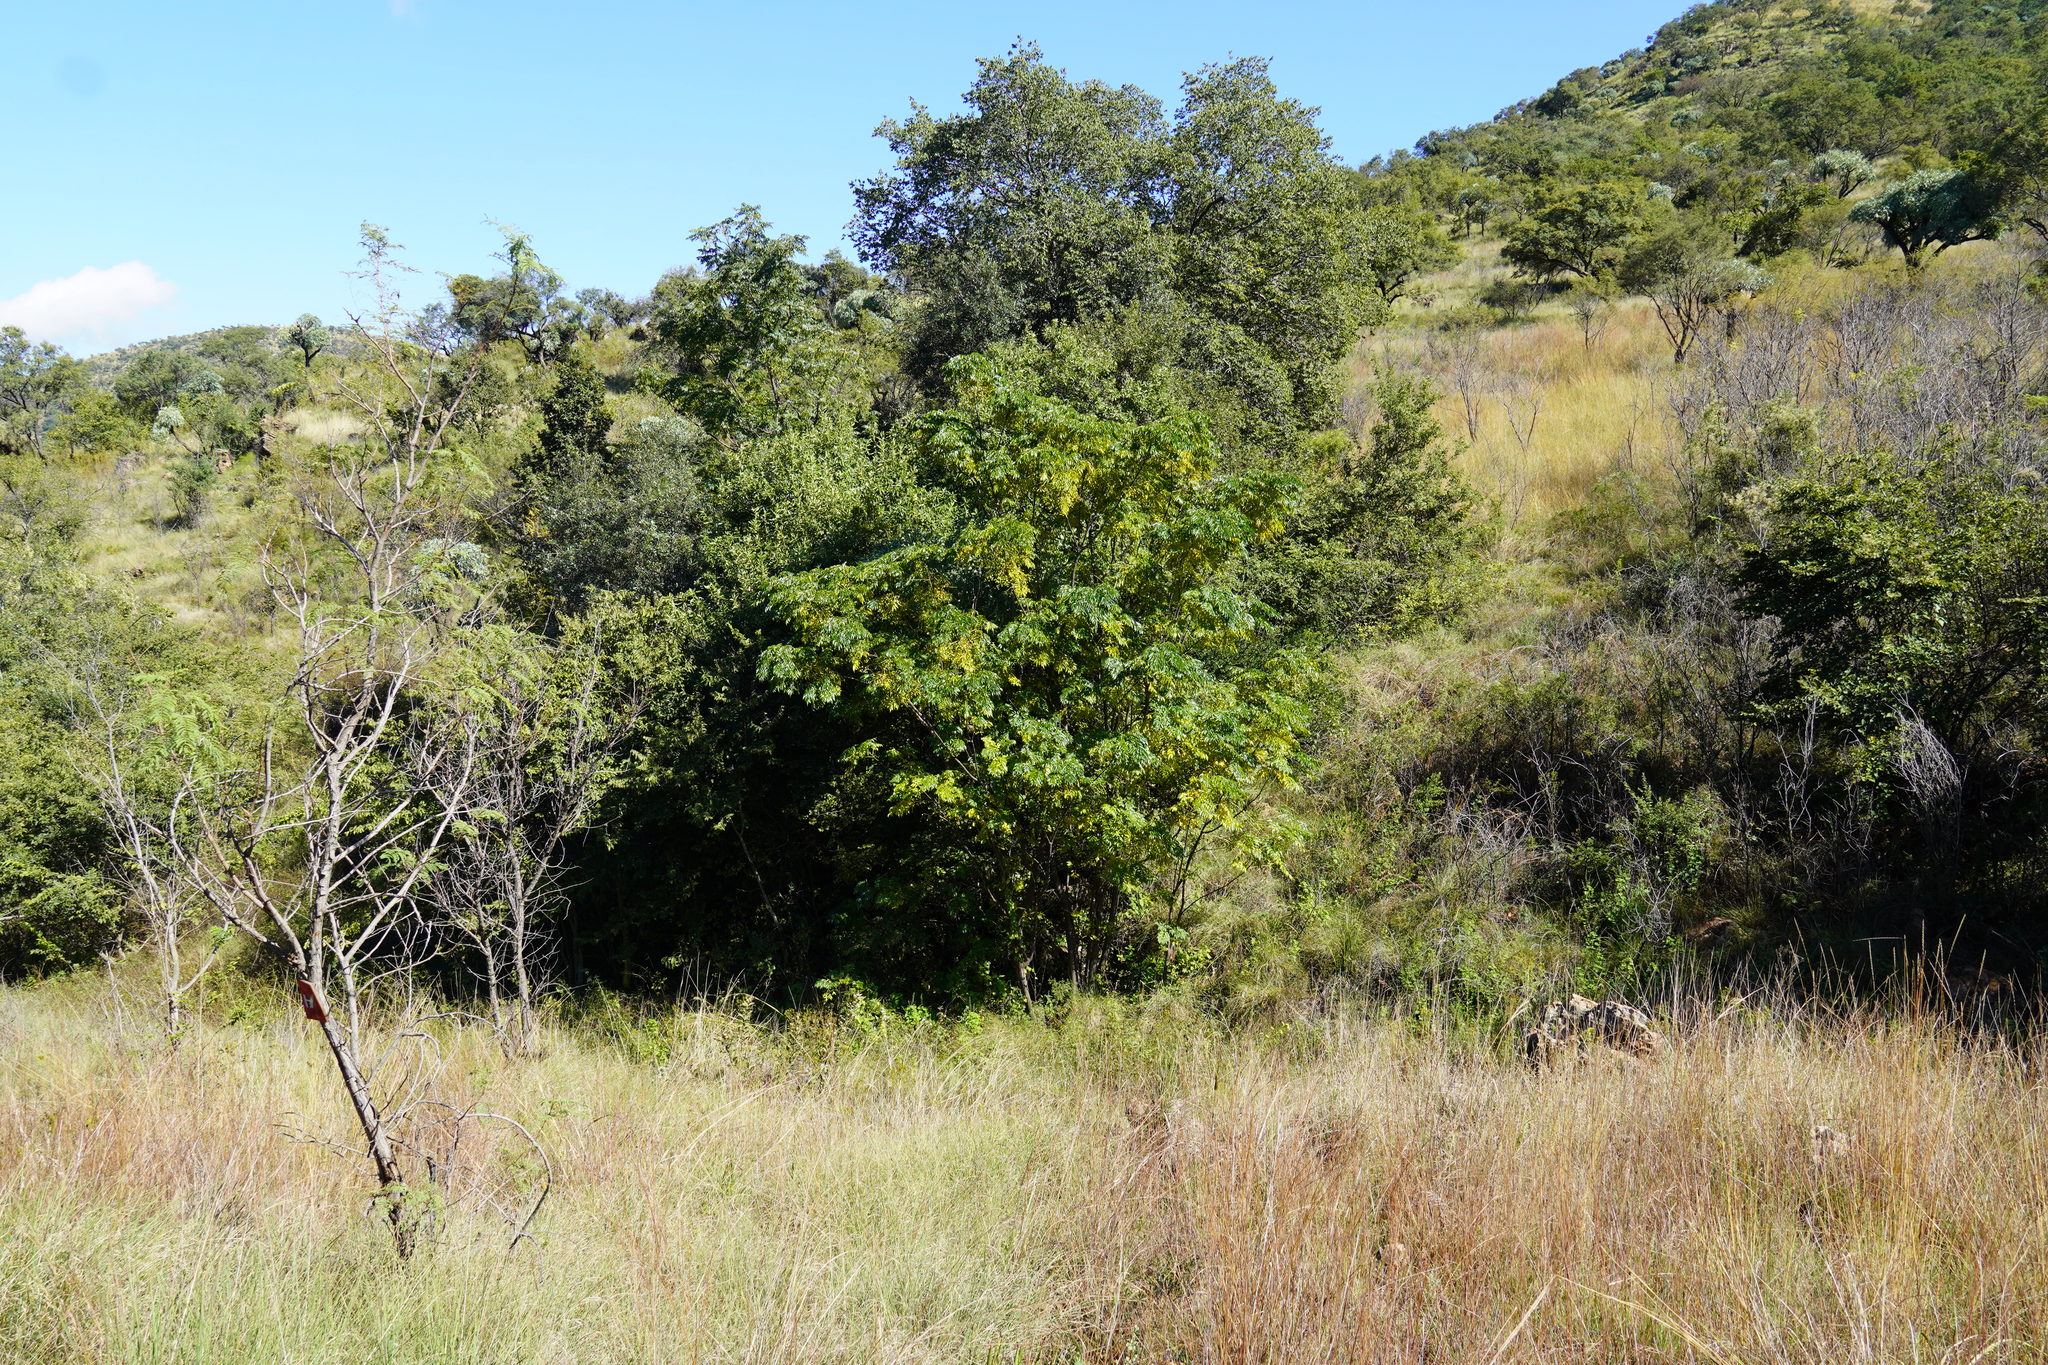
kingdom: Plantae
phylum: Tracheophyta
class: Magnoliopsida
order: Sapindales
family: Meliaceae
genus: Melia
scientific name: Melia azedarach
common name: Chinaberrytree
